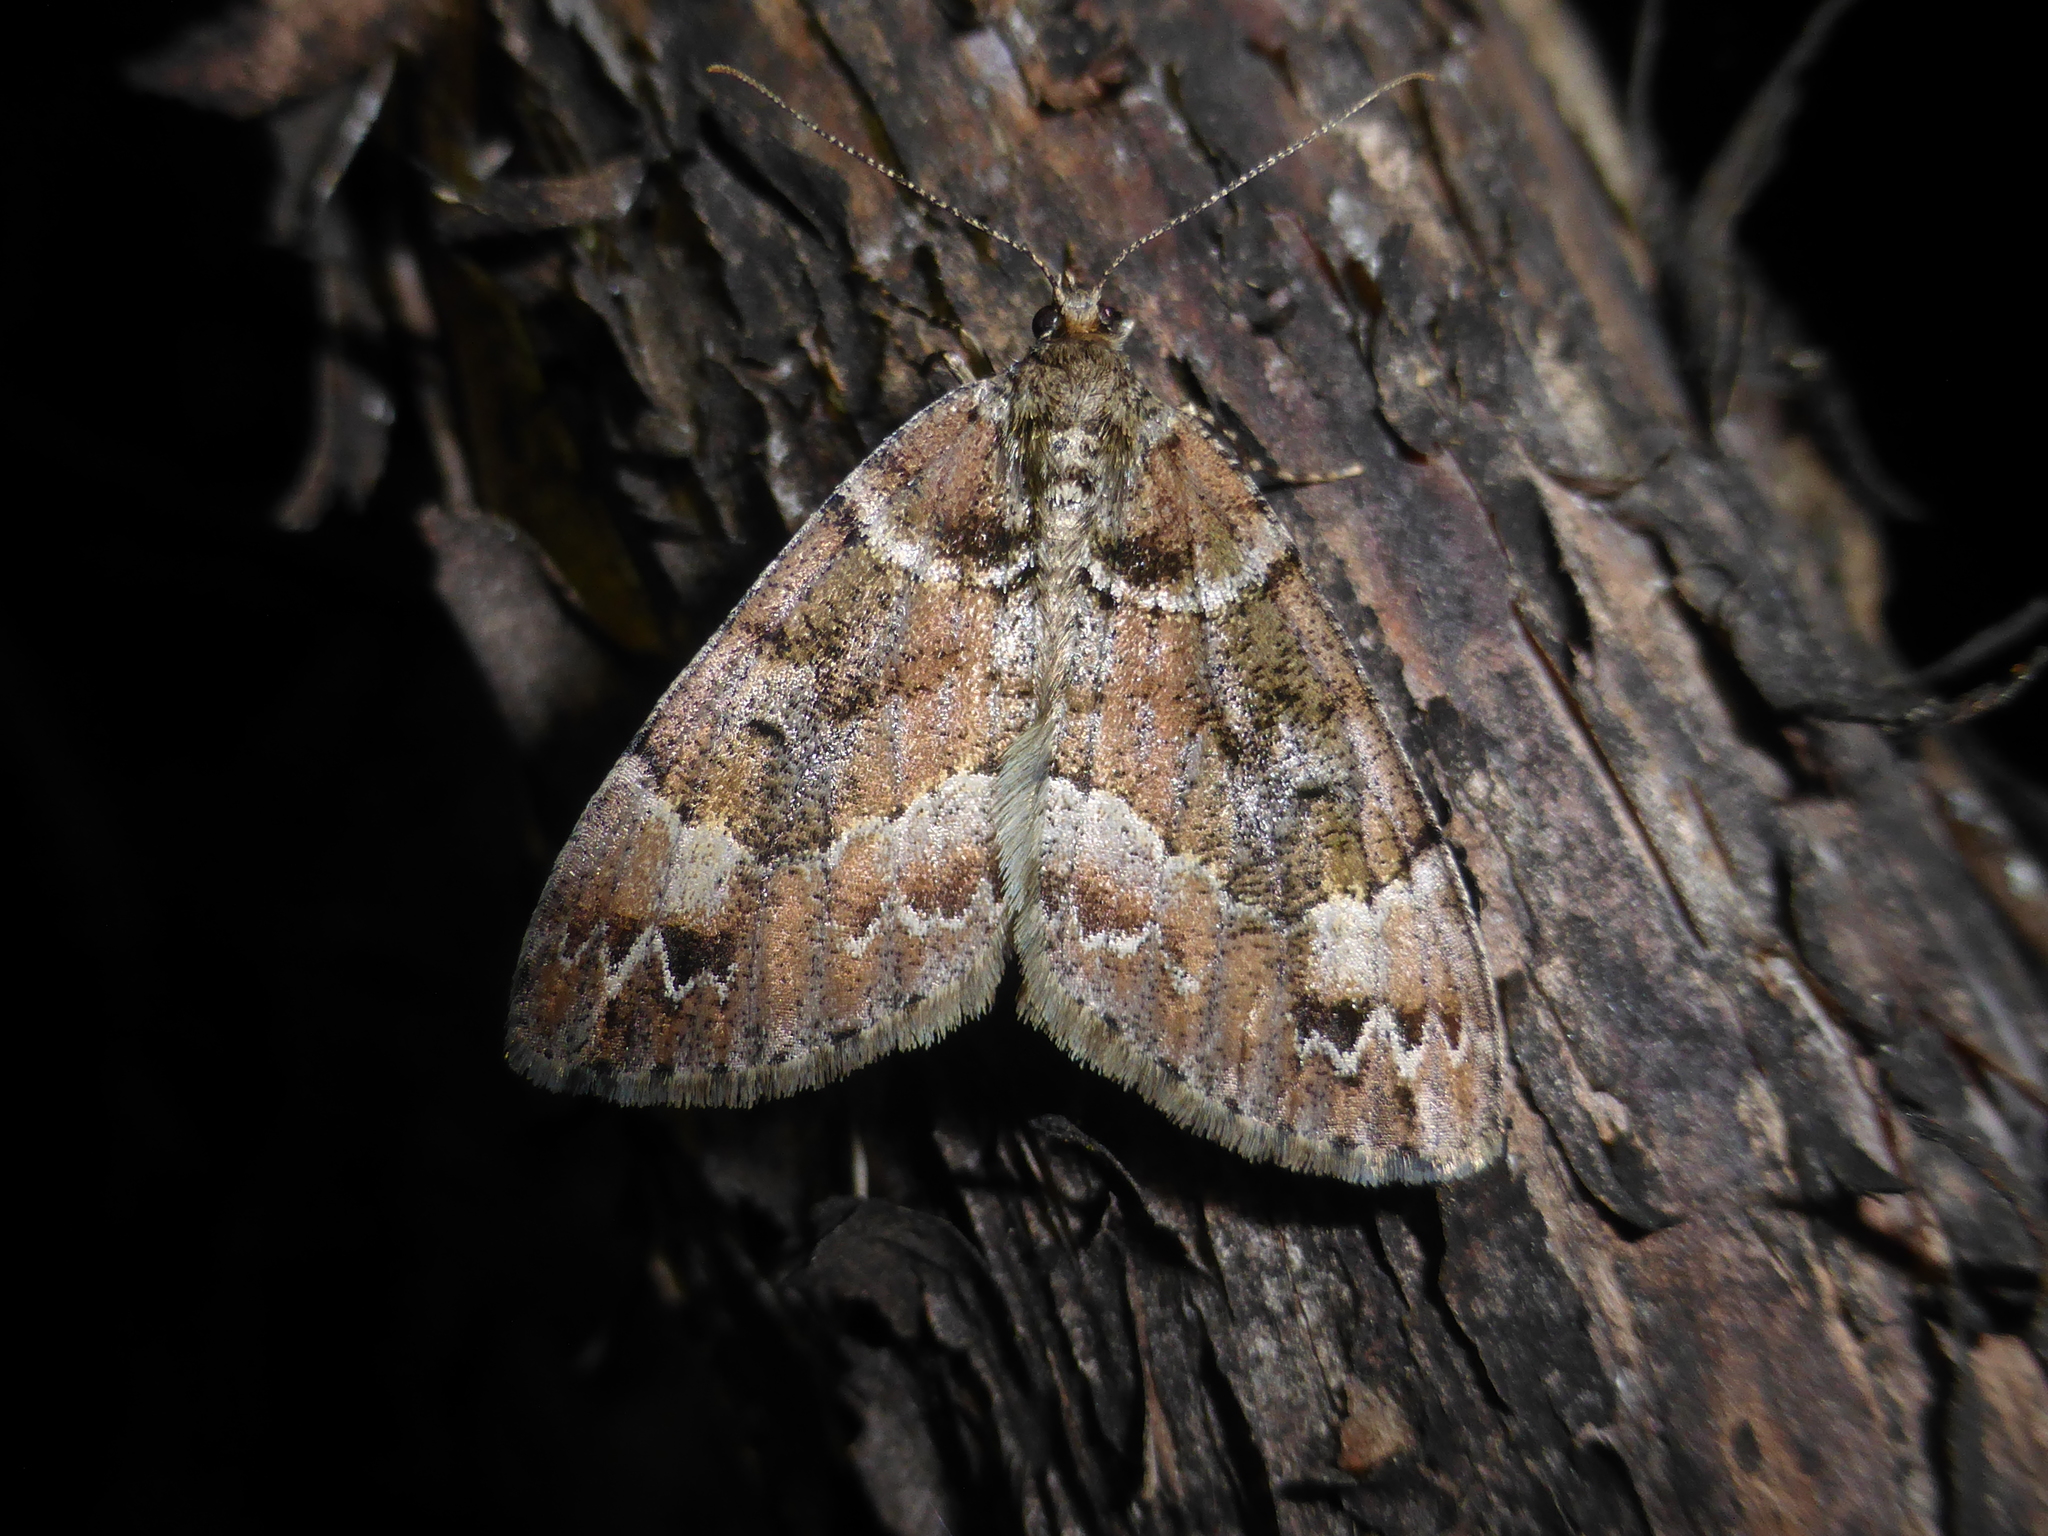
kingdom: Animalia
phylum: Arthropoda
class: Insecta
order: Lepidoptera
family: Geometridae
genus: Pseudocoremia
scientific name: Pseudocoremia productata
